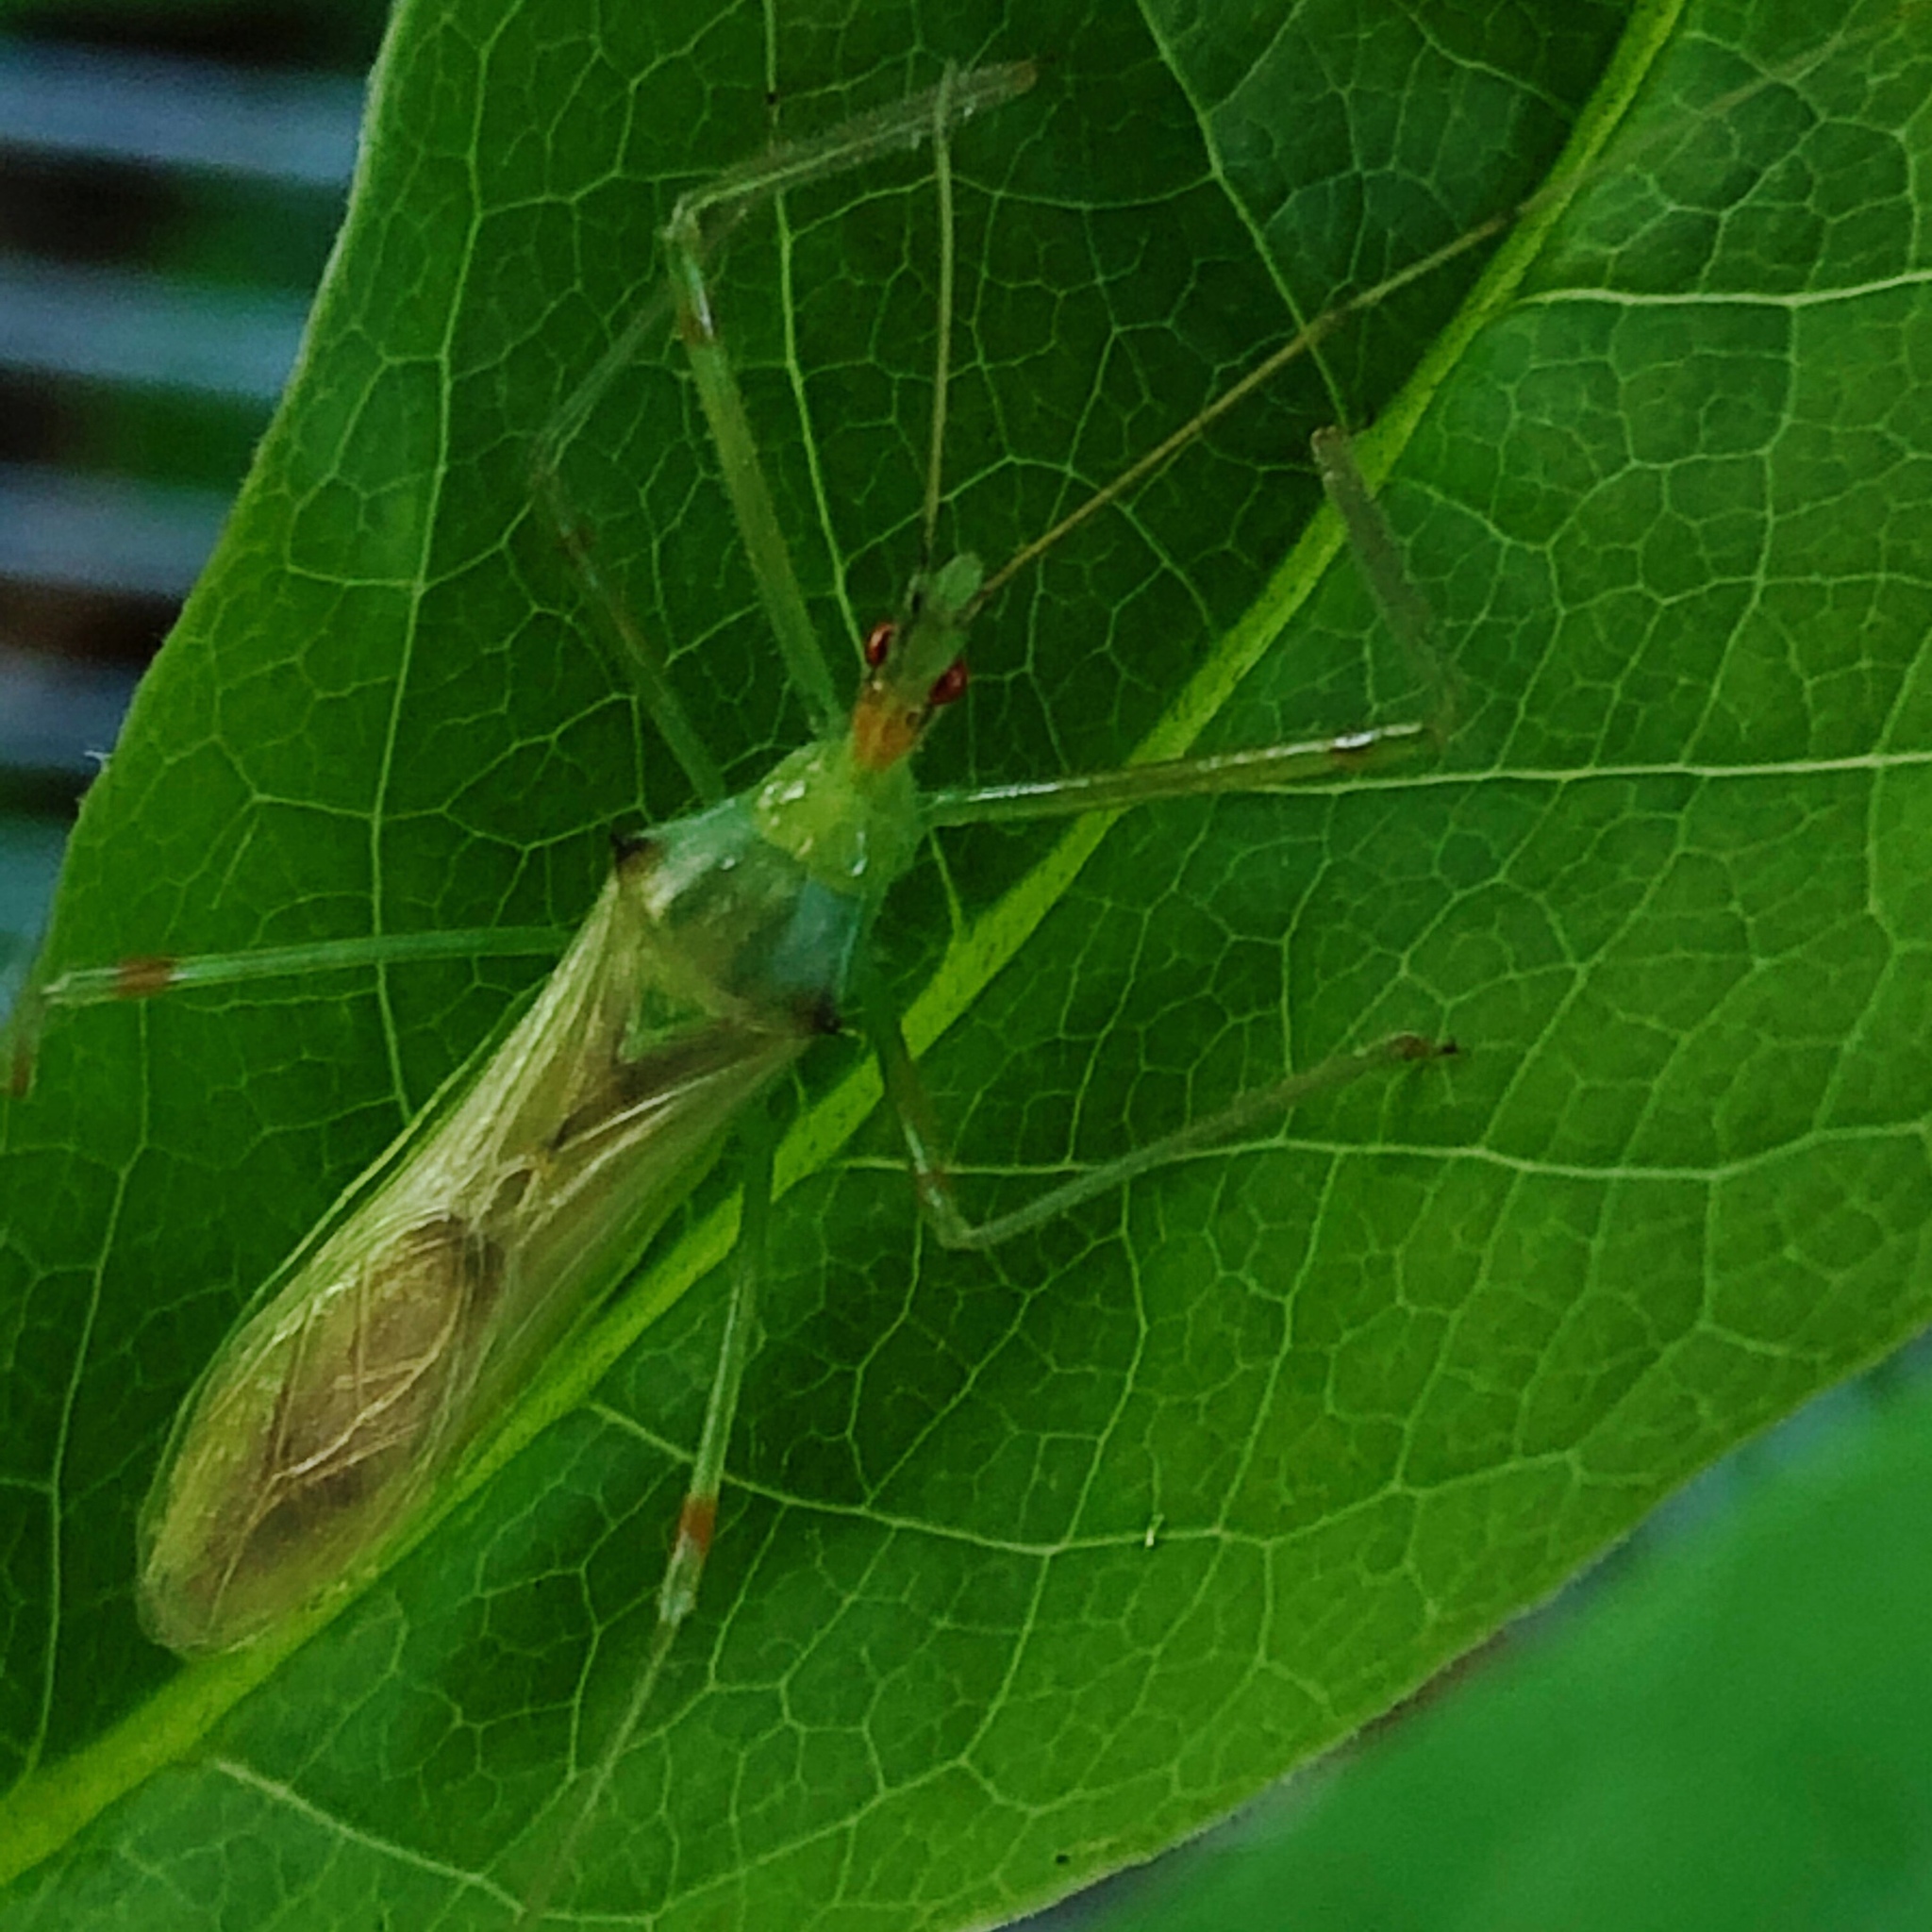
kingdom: Animalia
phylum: Arthropoda
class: Insecta
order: Hemiptera
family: Reduviidae
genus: Zelus
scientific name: Zelus luridus
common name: Pale green assassin bug
